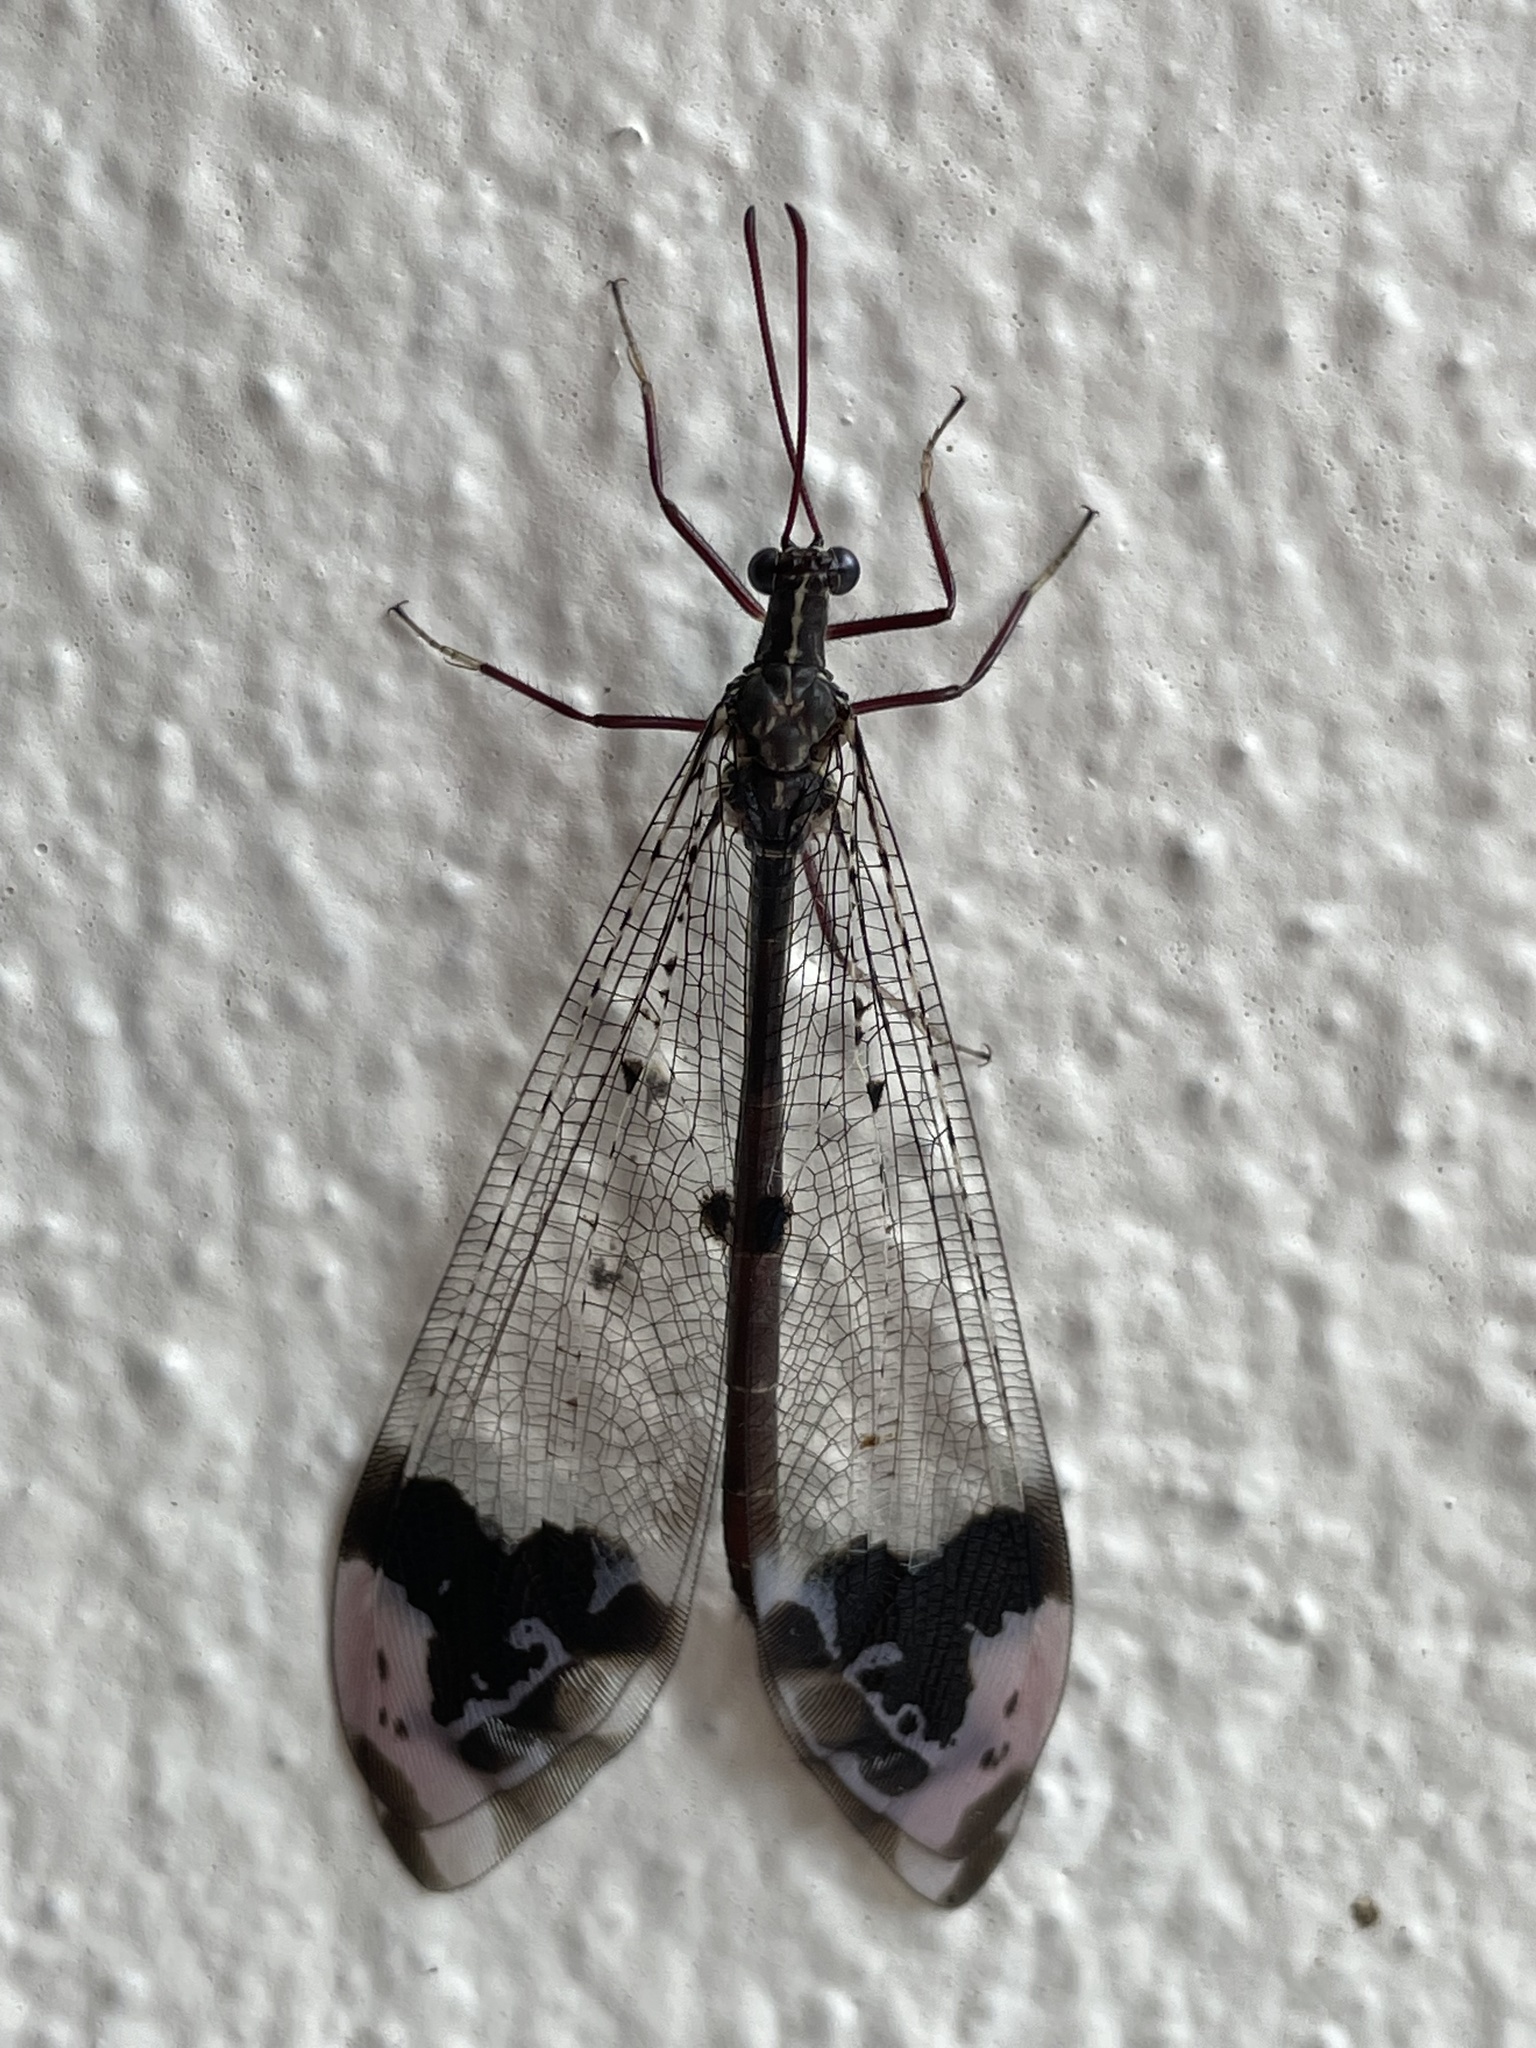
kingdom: Animalia
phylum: Arthropoda
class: Insecta
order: Neuroptera
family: Myrmeleontidae
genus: Glenurus
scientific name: Glenurus gratus
